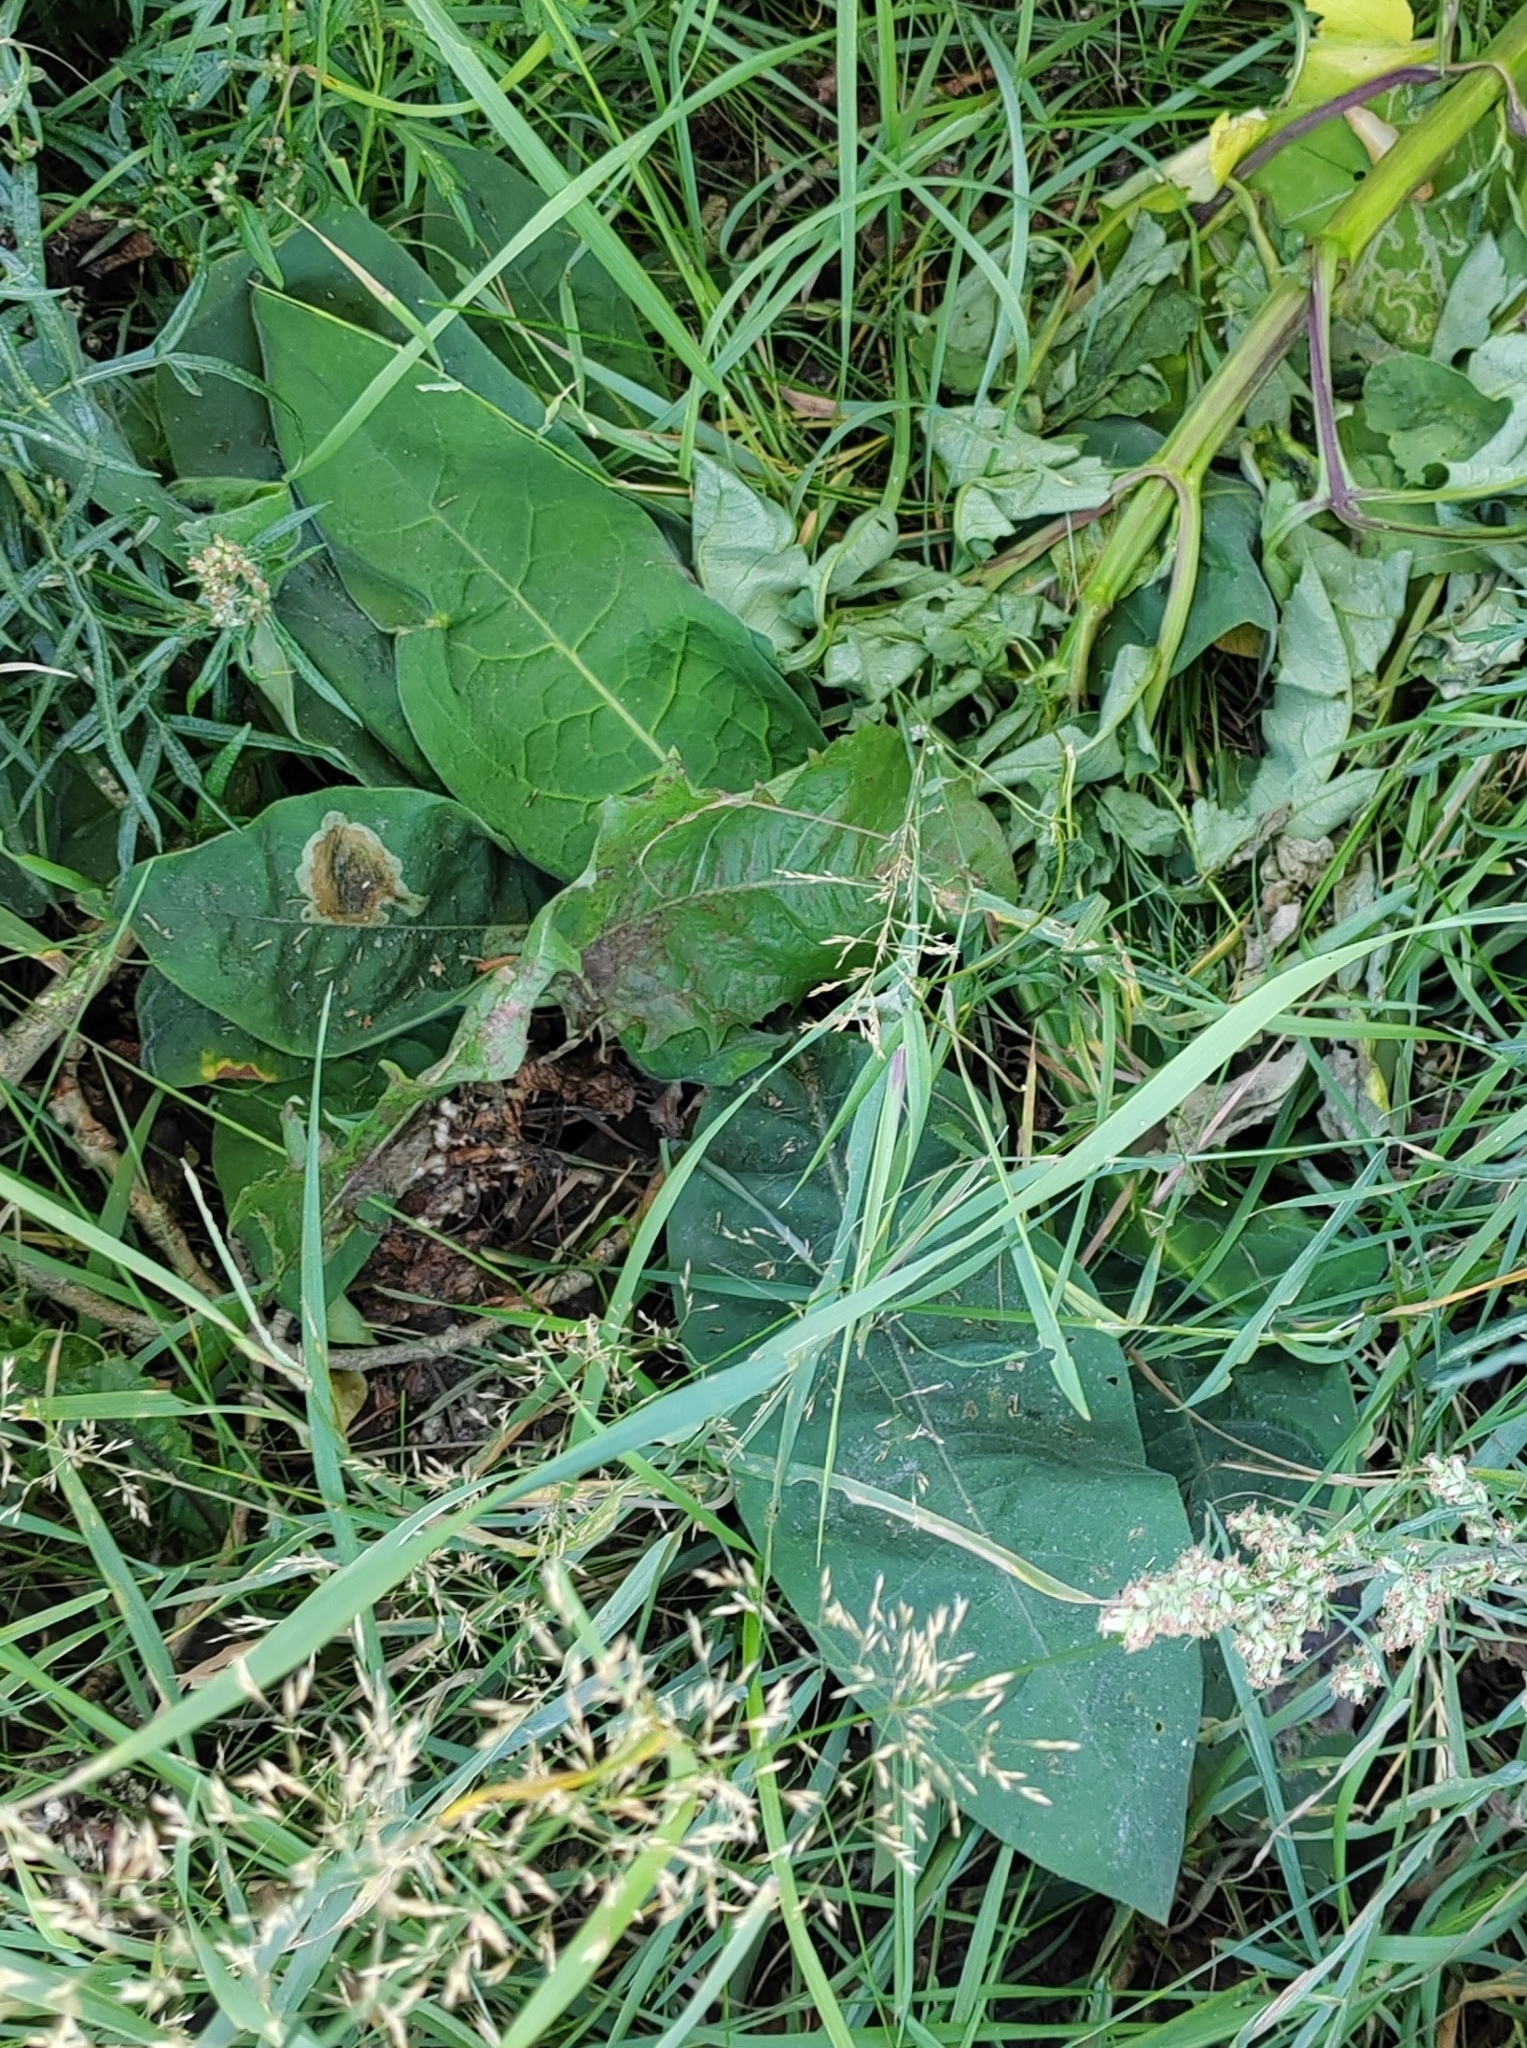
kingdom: Plantae
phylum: Tracheophyta
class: Magnoliopsida
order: Boraginales
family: Boraginaceae
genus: Pulmonaria
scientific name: Pulmonaria mollis
